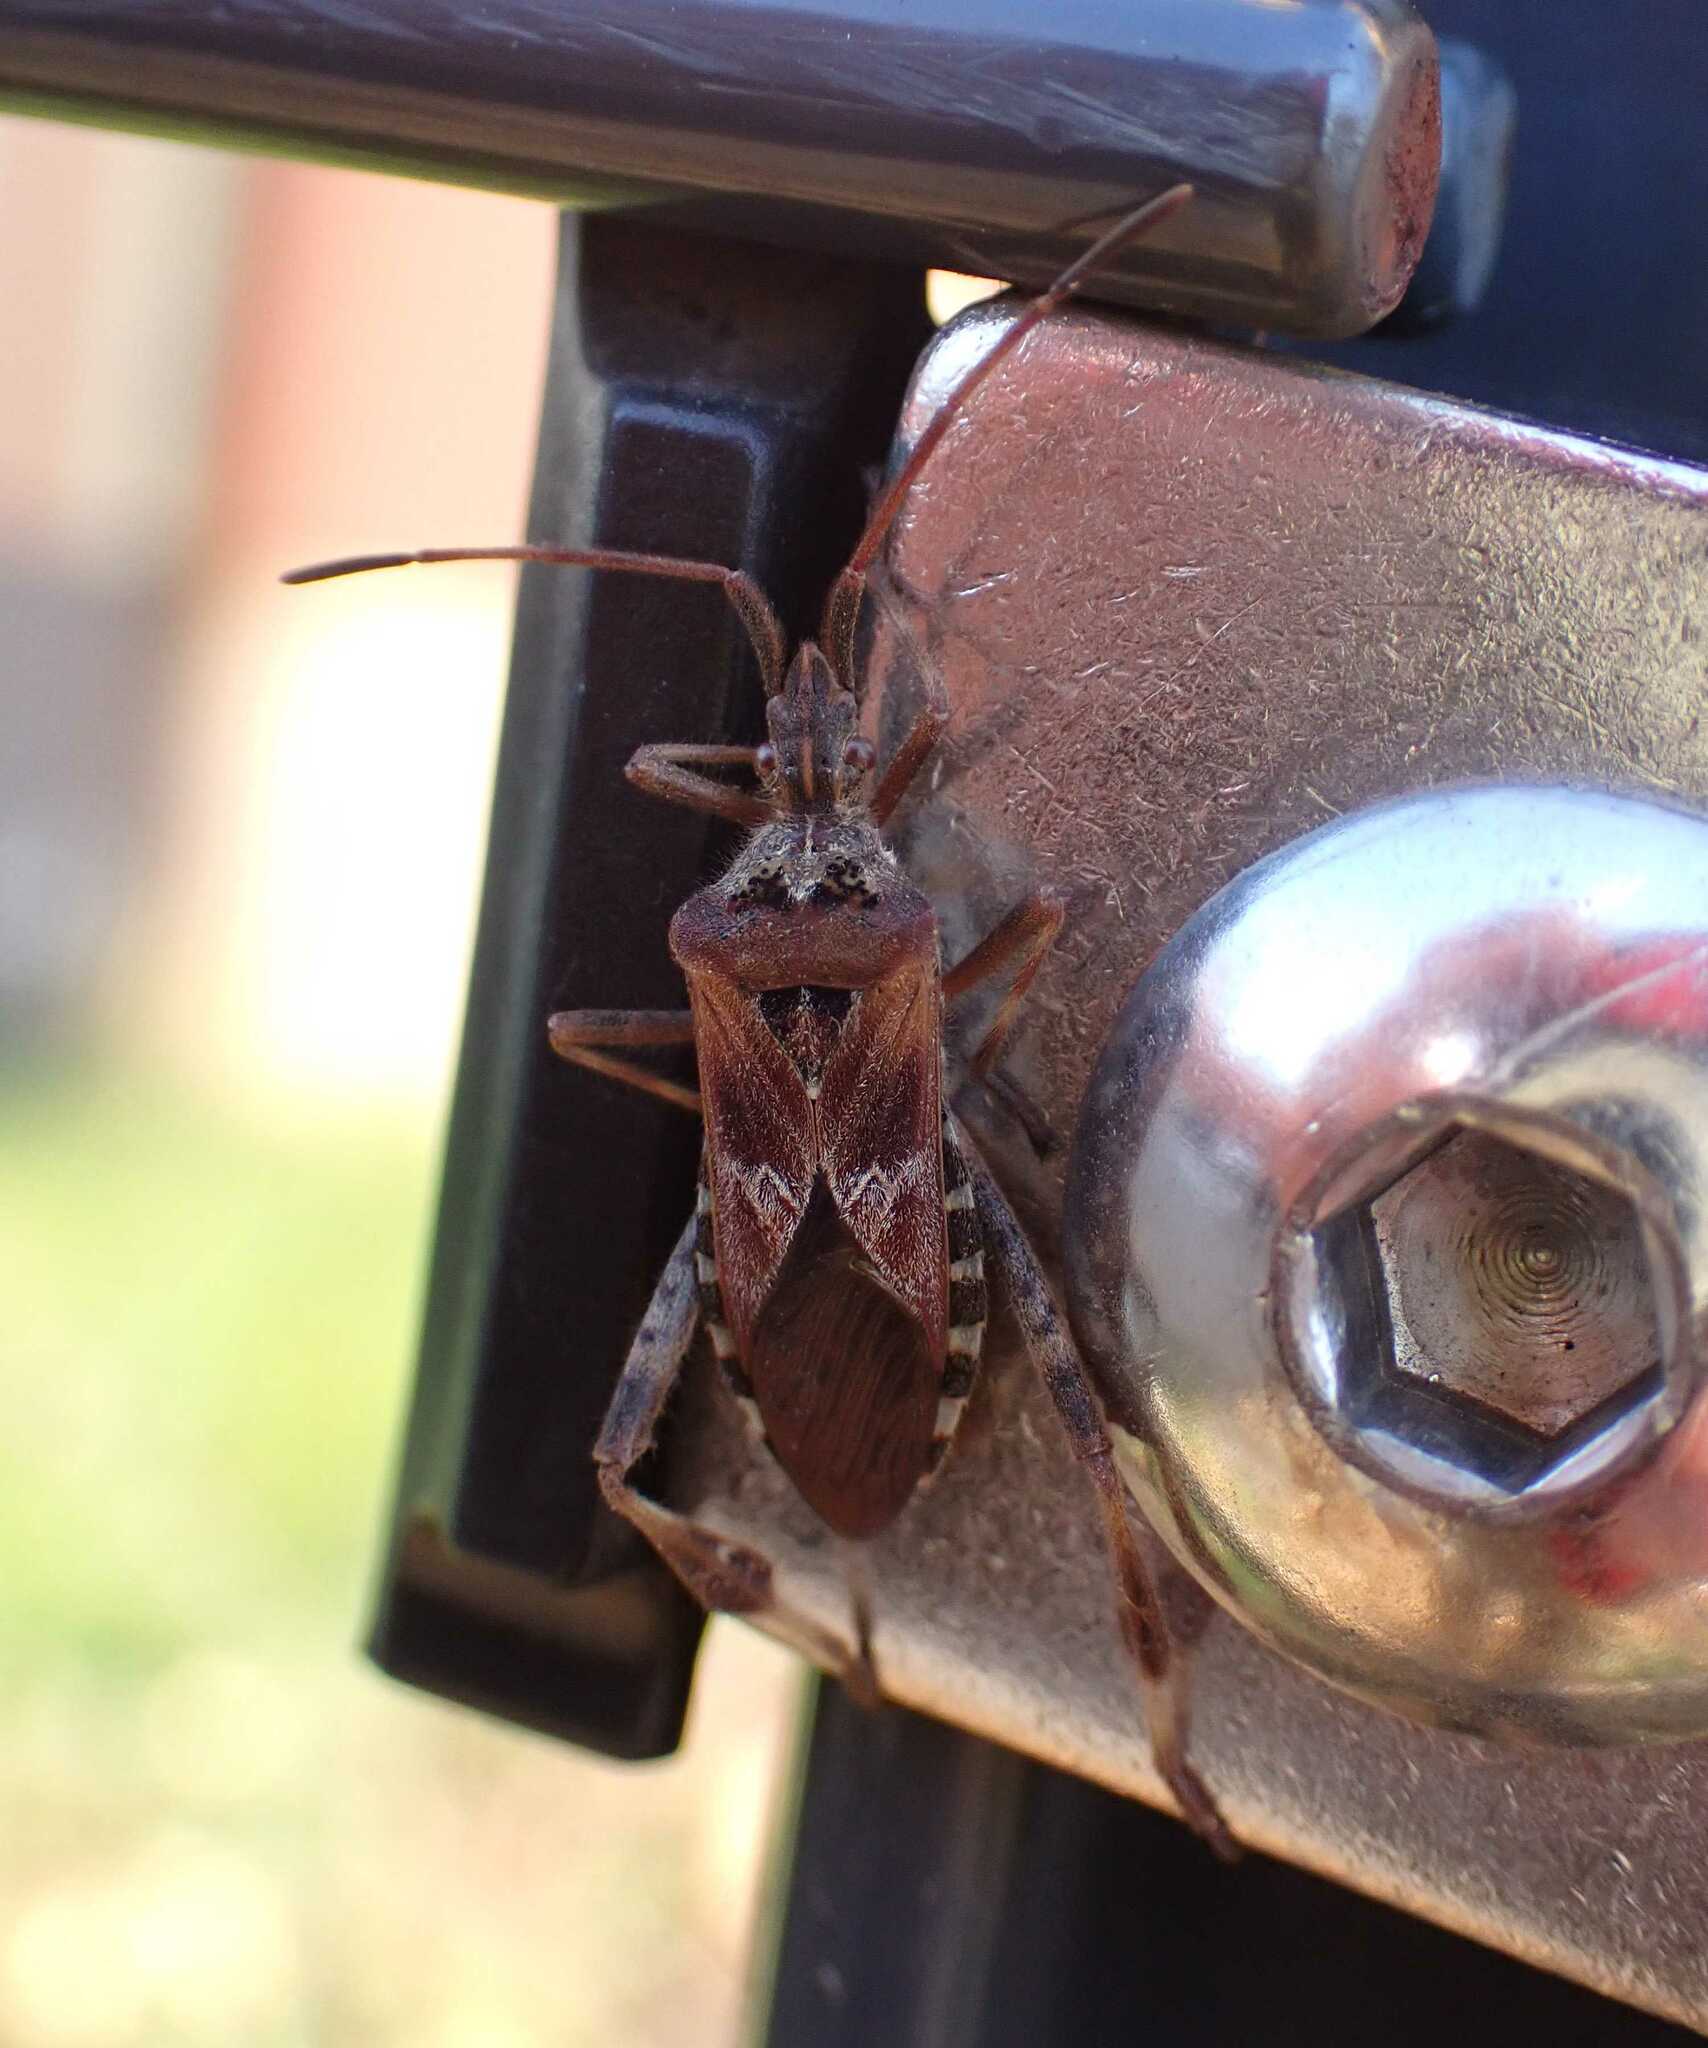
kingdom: Animalia
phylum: Arthropoda
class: Insecta
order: Hemiptera
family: Coreidae
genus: Leptoglossus
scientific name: Leptoglossus occidentalis
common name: Western conifer-seed bug
